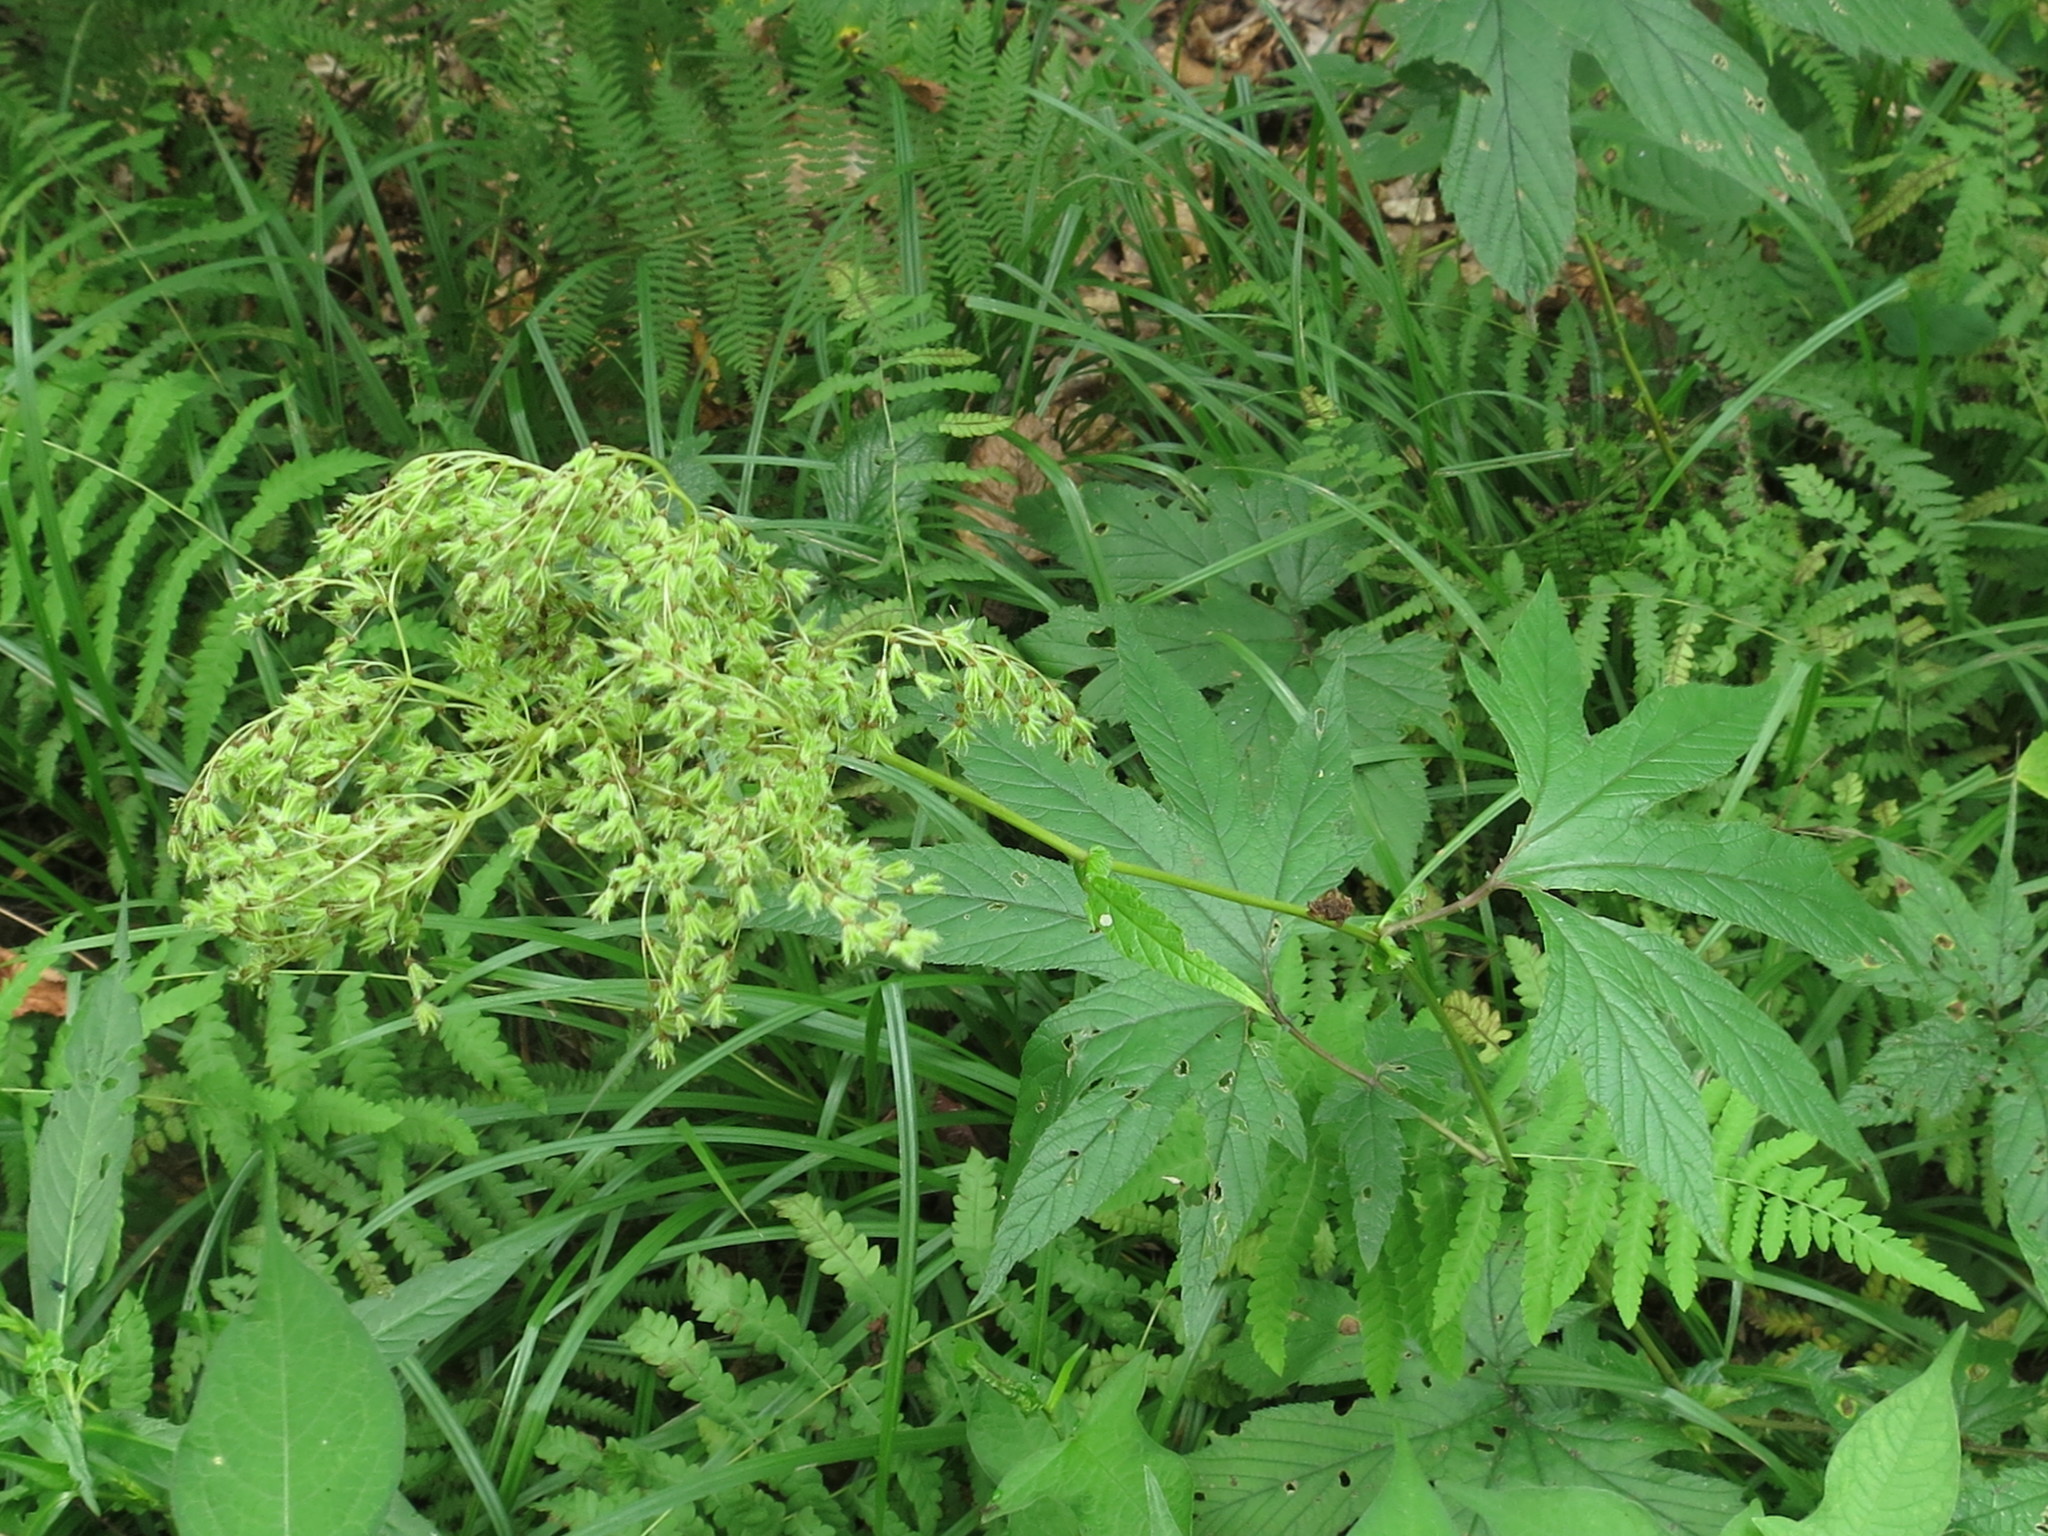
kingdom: Plantae
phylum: Tracheophyta
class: Magnoliopsida
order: Rosales
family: Rosaceae
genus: Filipendula
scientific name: Filipendula digitata
